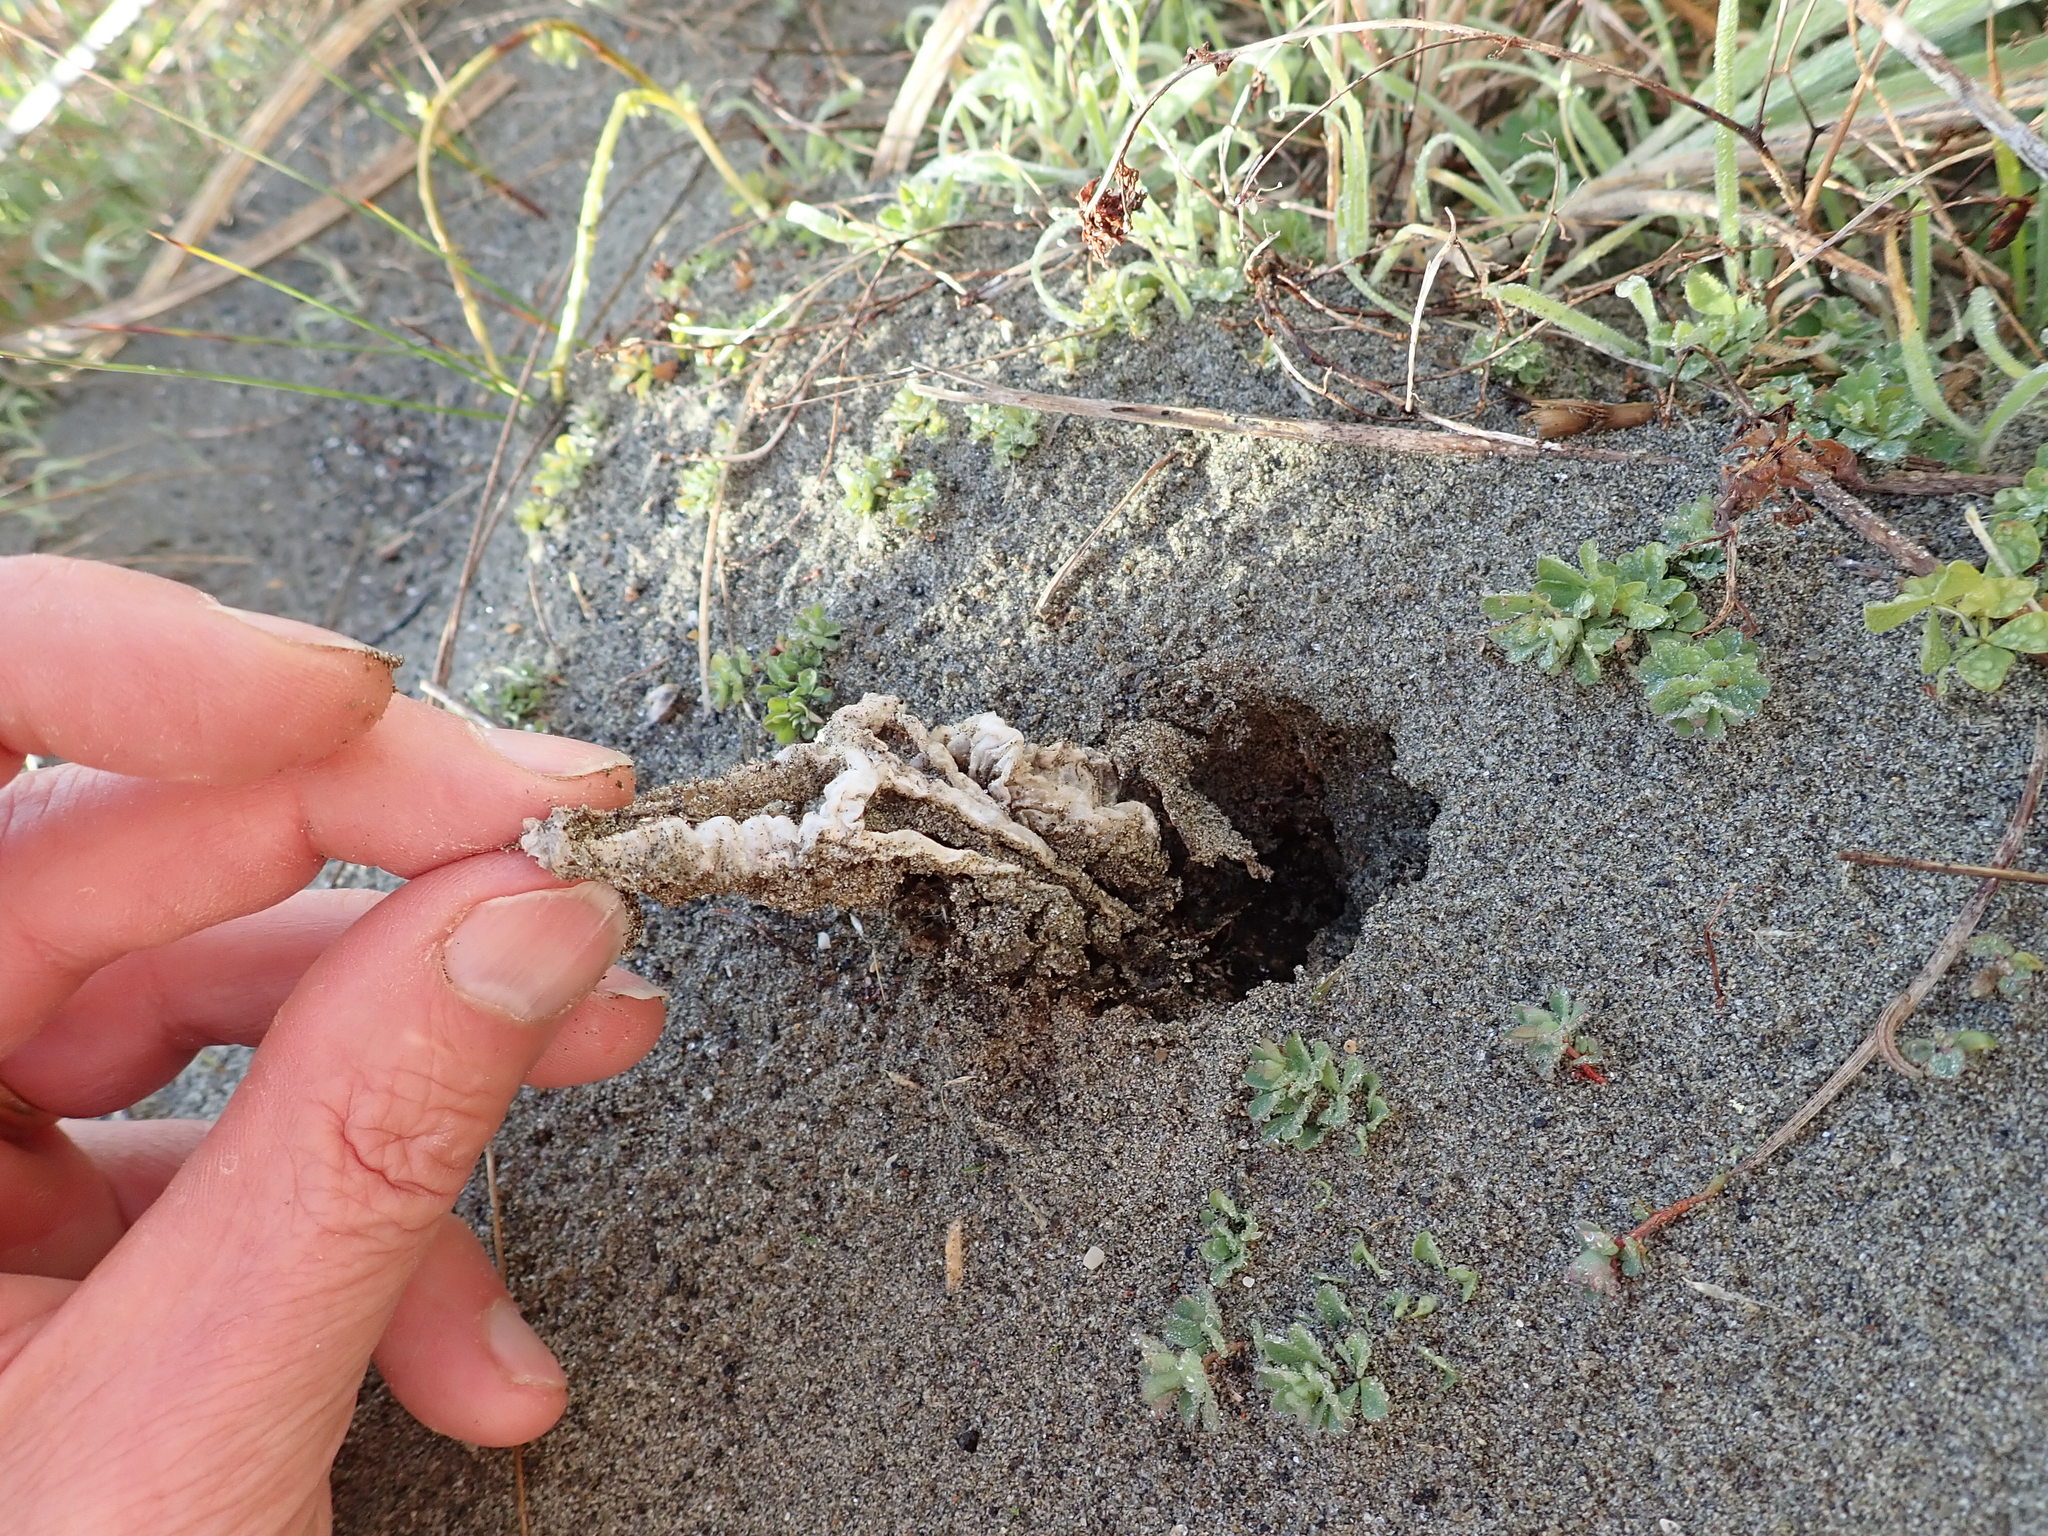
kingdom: Fungi
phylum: Basidiomycota
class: Agaricomycetes
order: Phallales
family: Phallaceae
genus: Ileodictyon
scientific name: Ileodictyon cibarium
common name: Basket fungus
